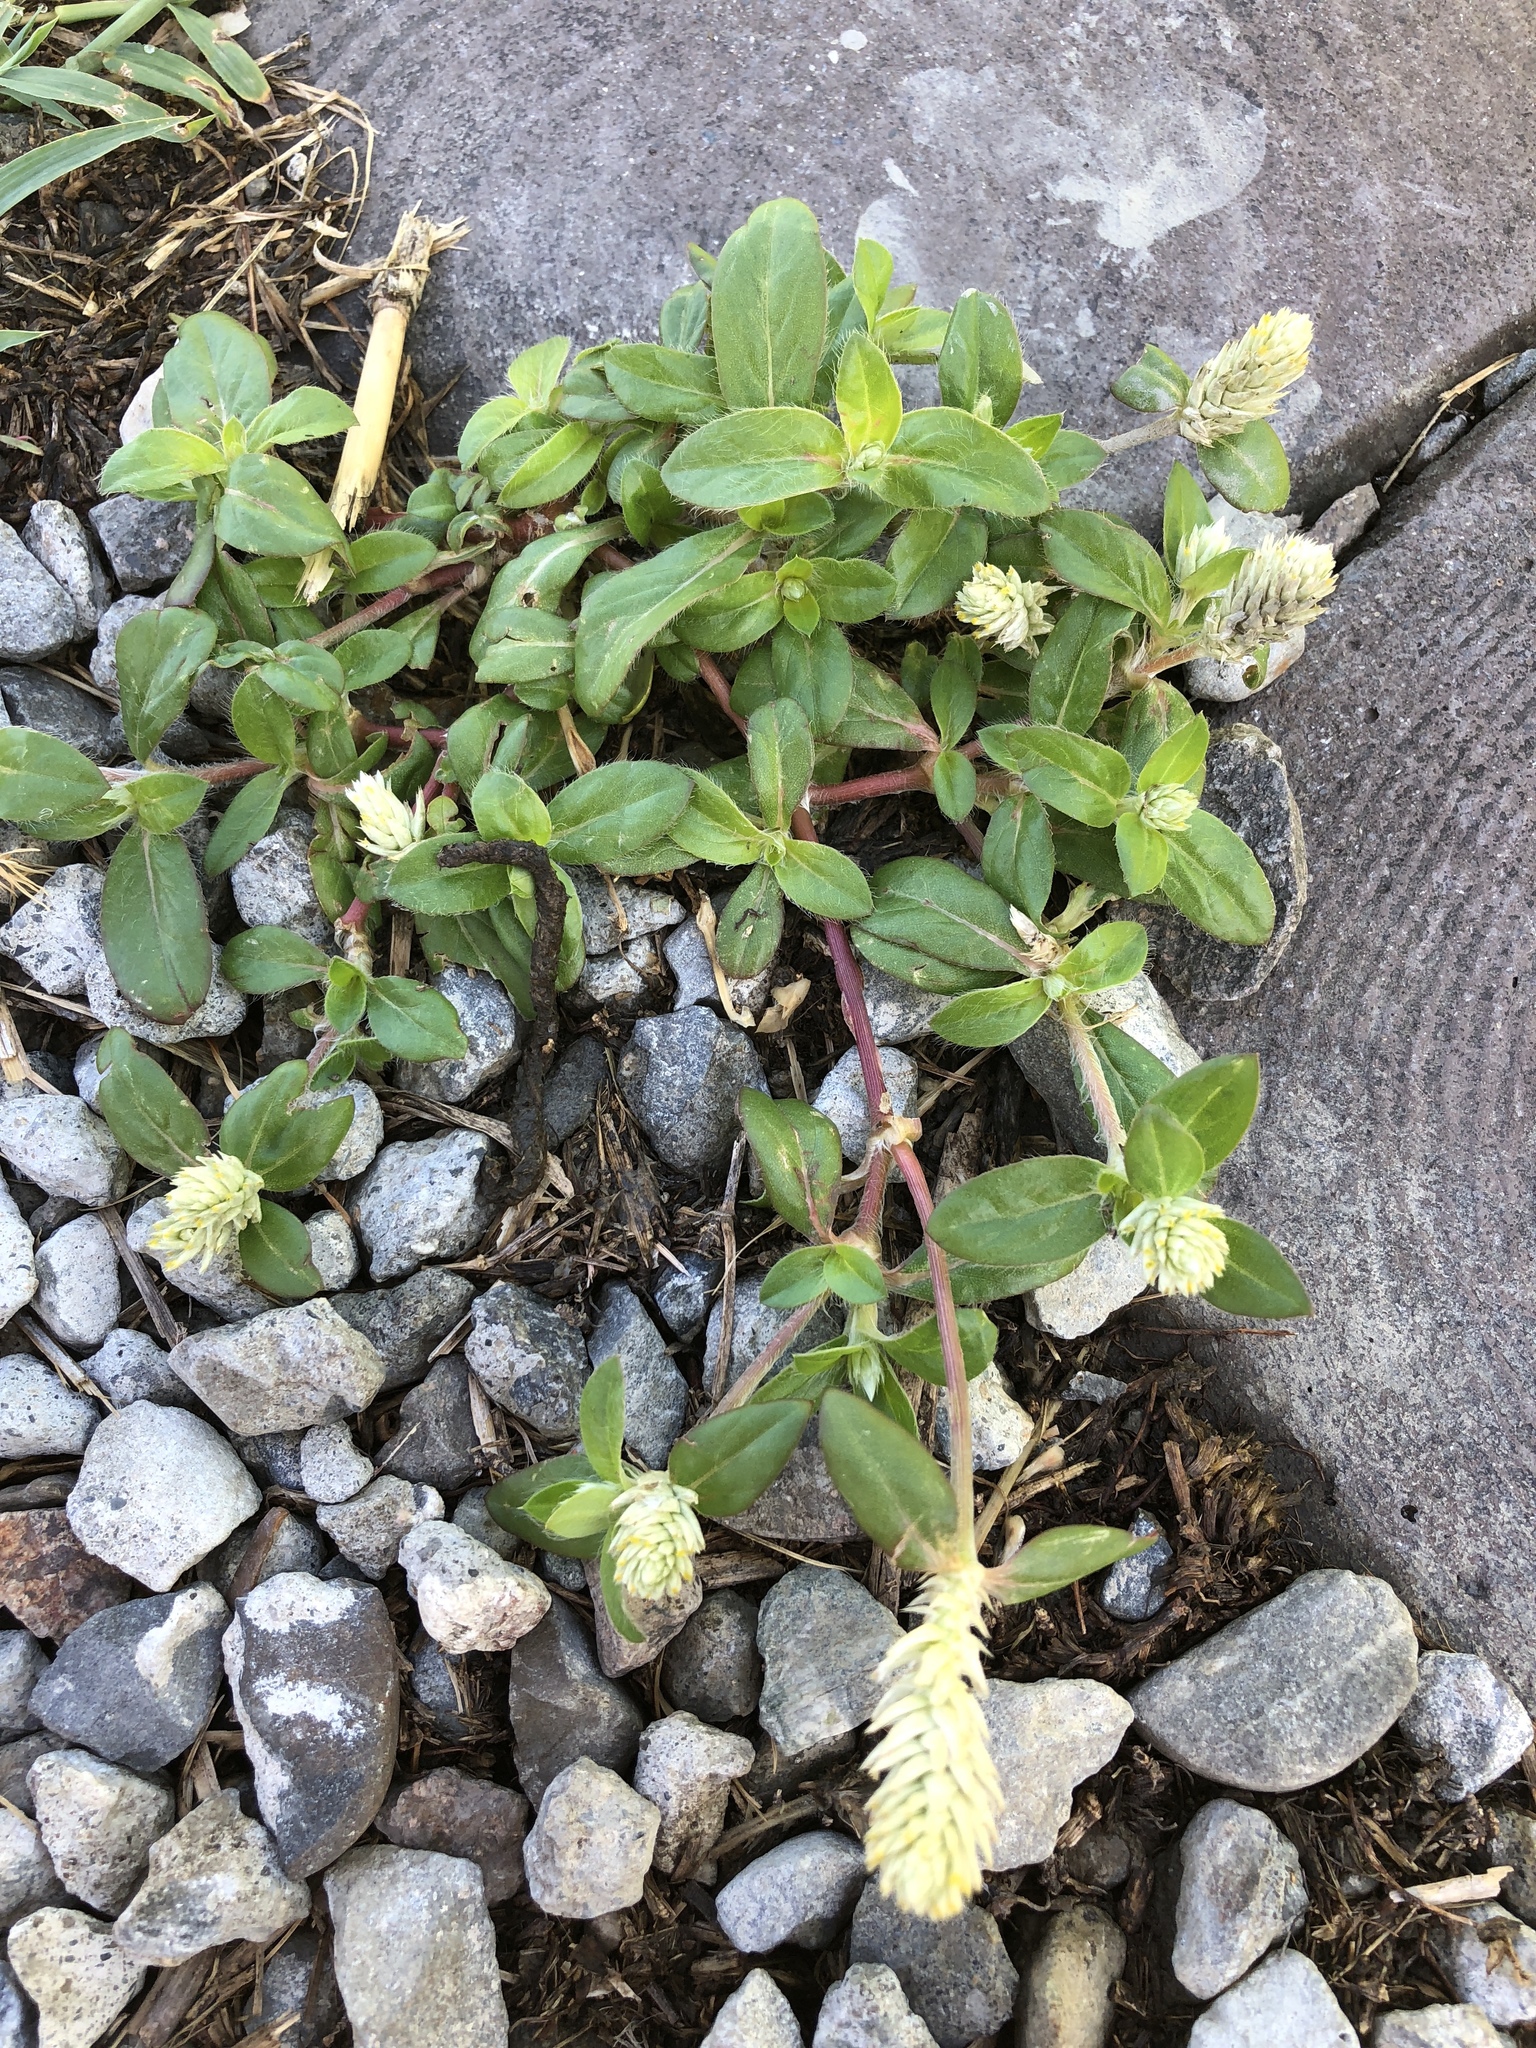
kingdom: Plantae
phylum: Tracheophyta
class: Magnoliopsida
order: Caryophyllales
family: Amaranthaceae
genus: Gomphrena
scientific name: Gomphrena celosioides
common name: Gomphrena-weed
